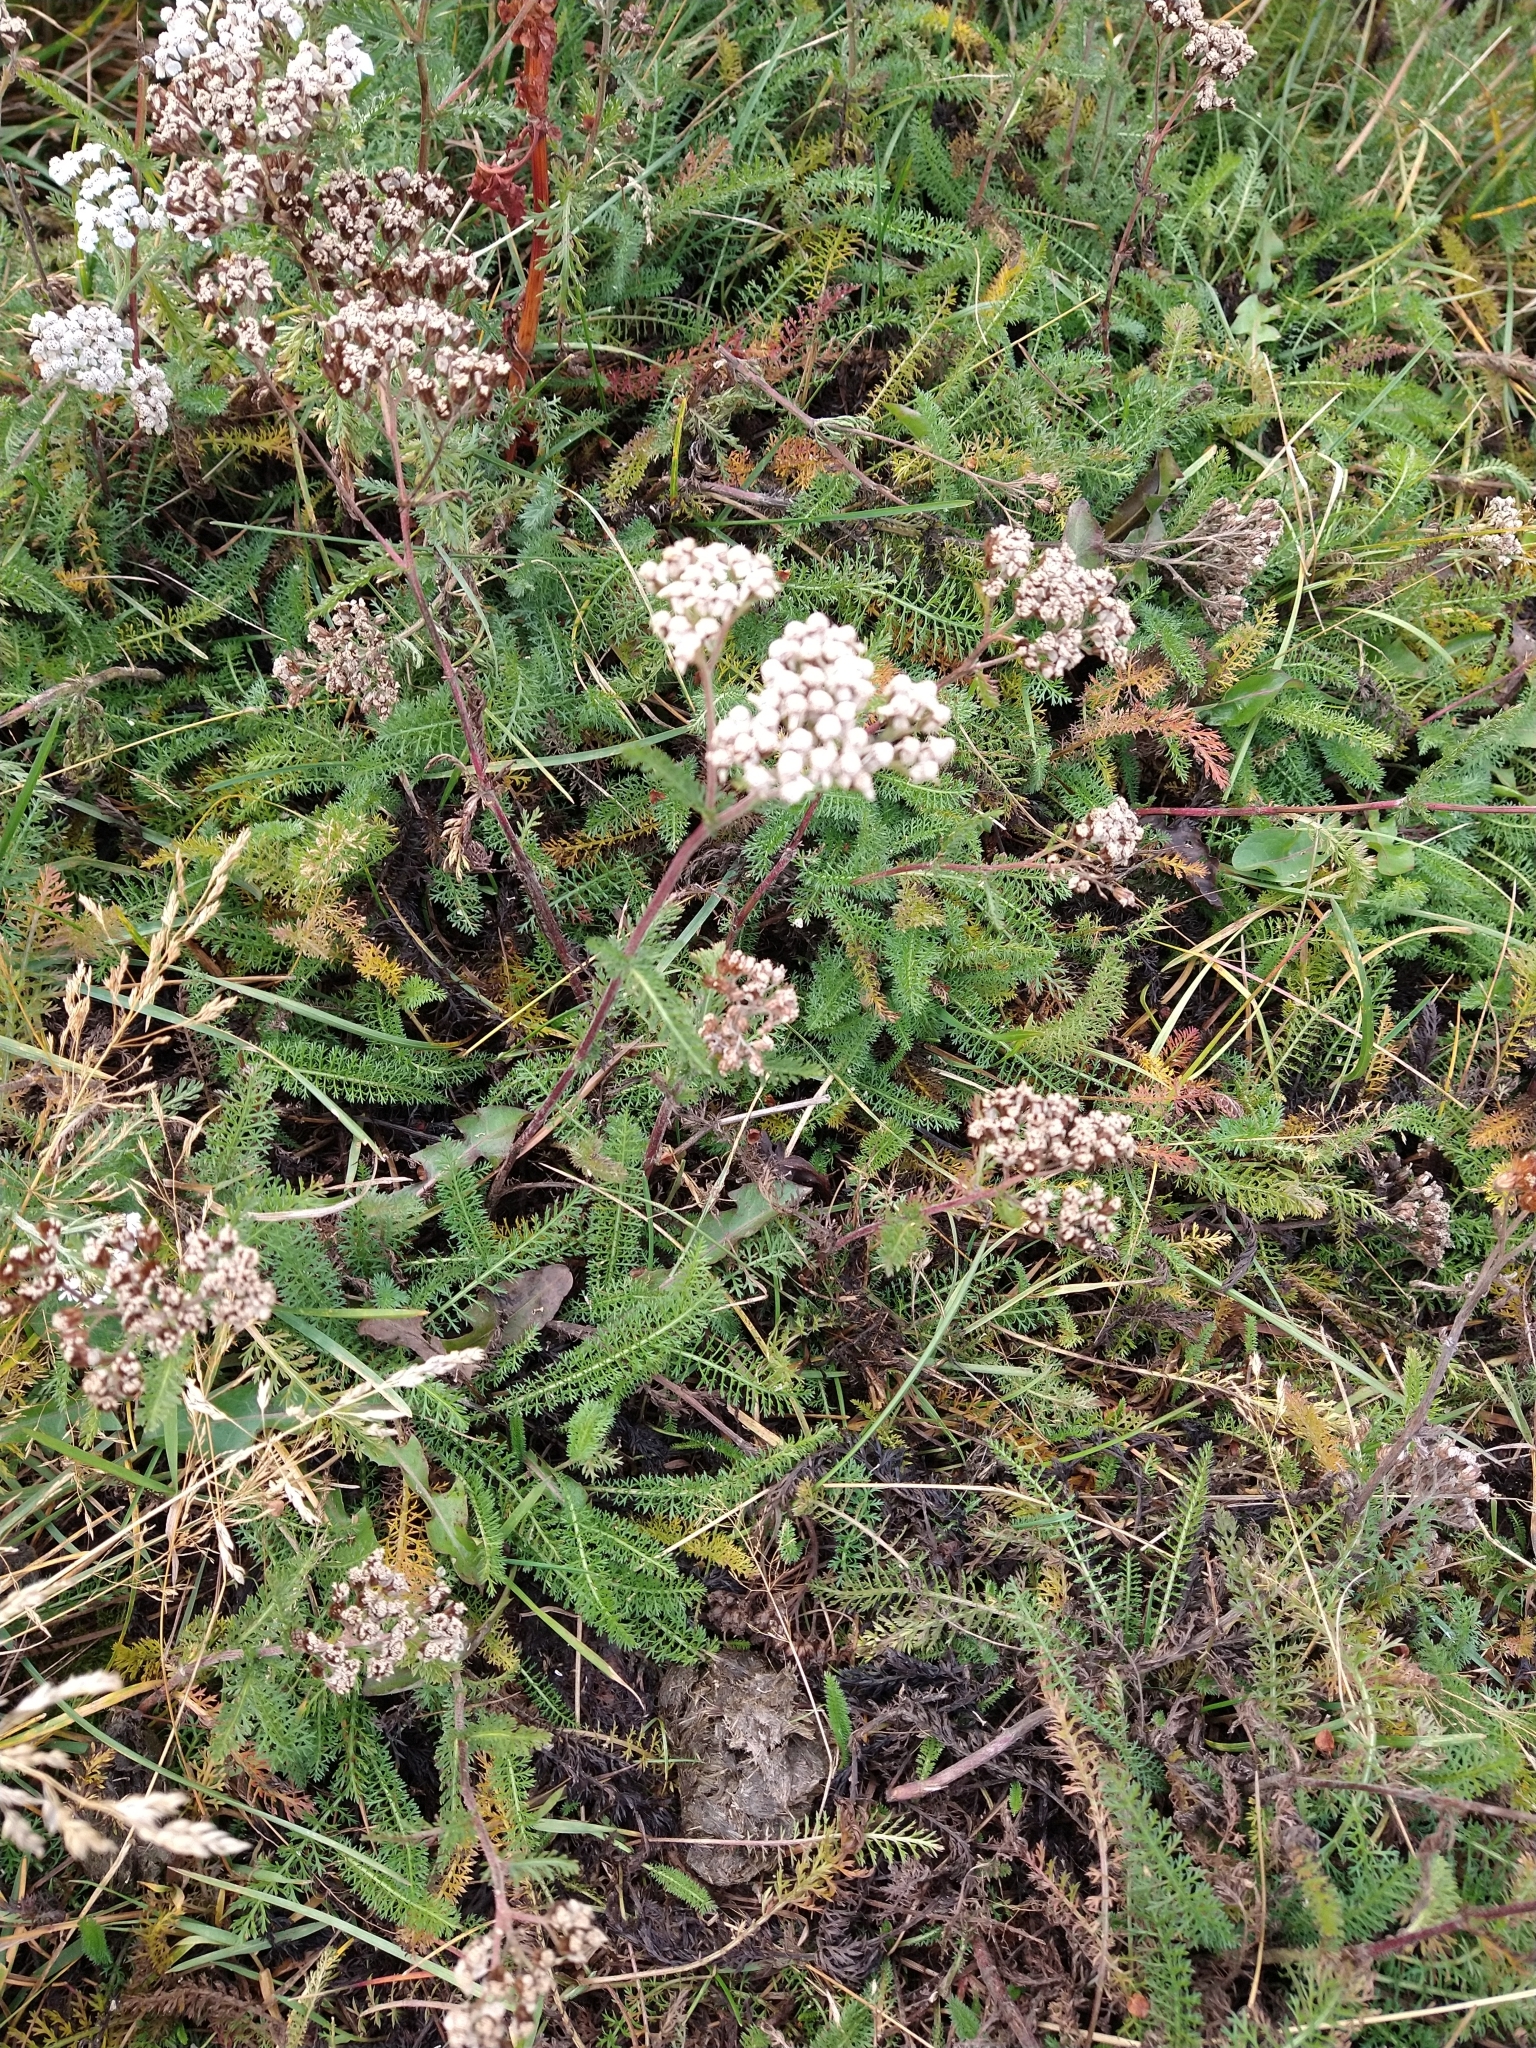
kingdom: Plantae
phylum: Tracheophyta
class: Magnoliopsida
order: Asterales
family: Asteraceae
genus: Achillea
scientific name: Achillea millefolium
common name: Yarrow
